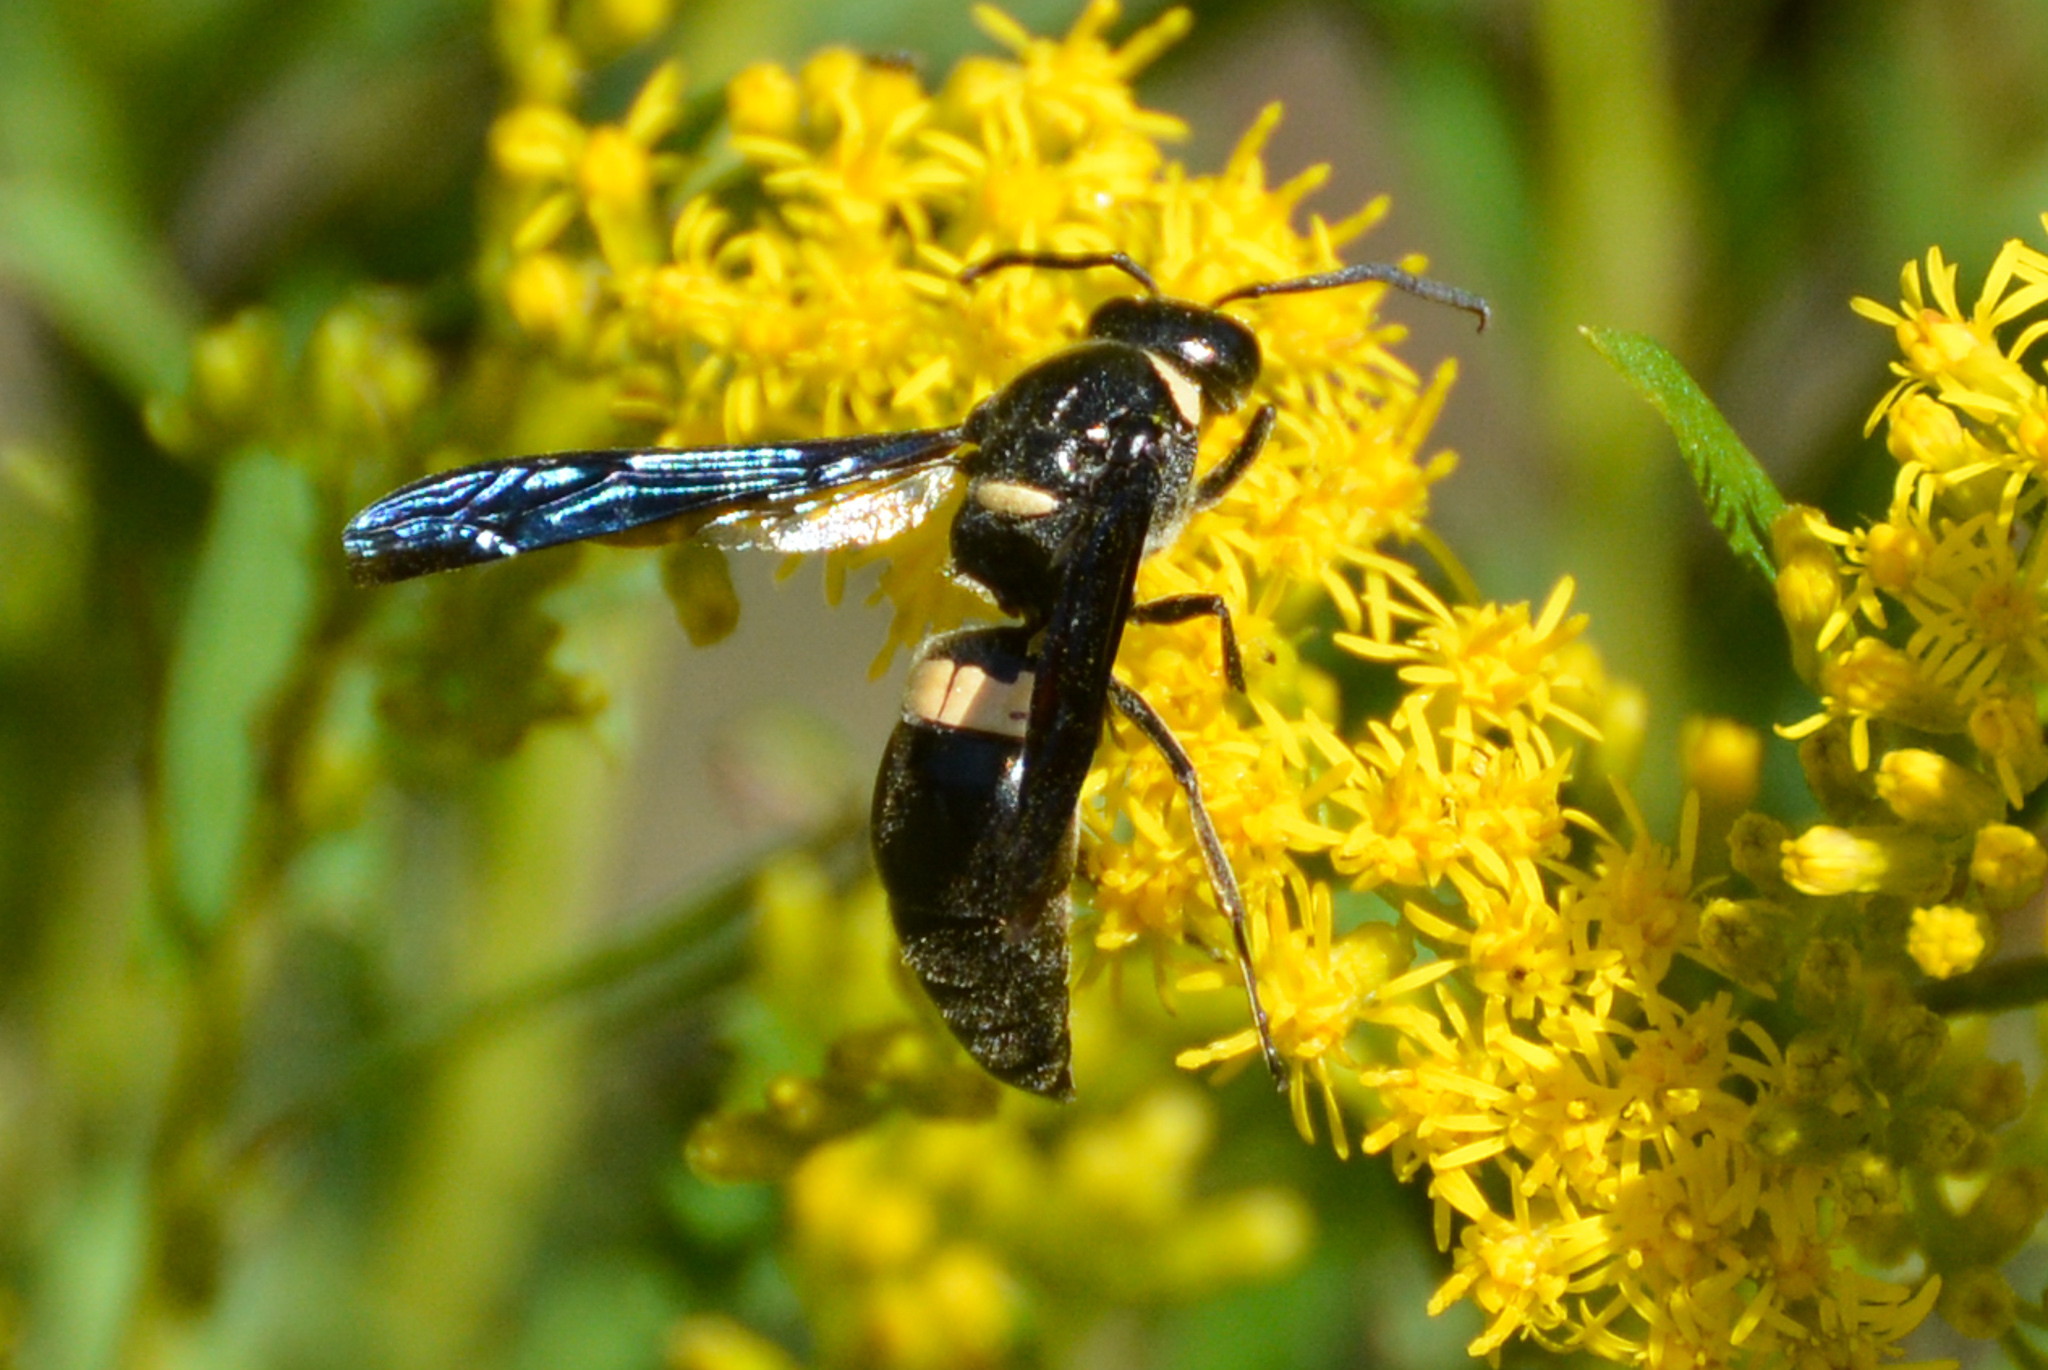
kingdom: Animalia
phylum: Arthropoda
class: Insecta
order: Hymenoptera
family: Eumenidae
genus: Monobia
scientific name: Monobia quadridens
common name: Four-toothed mason wasp
